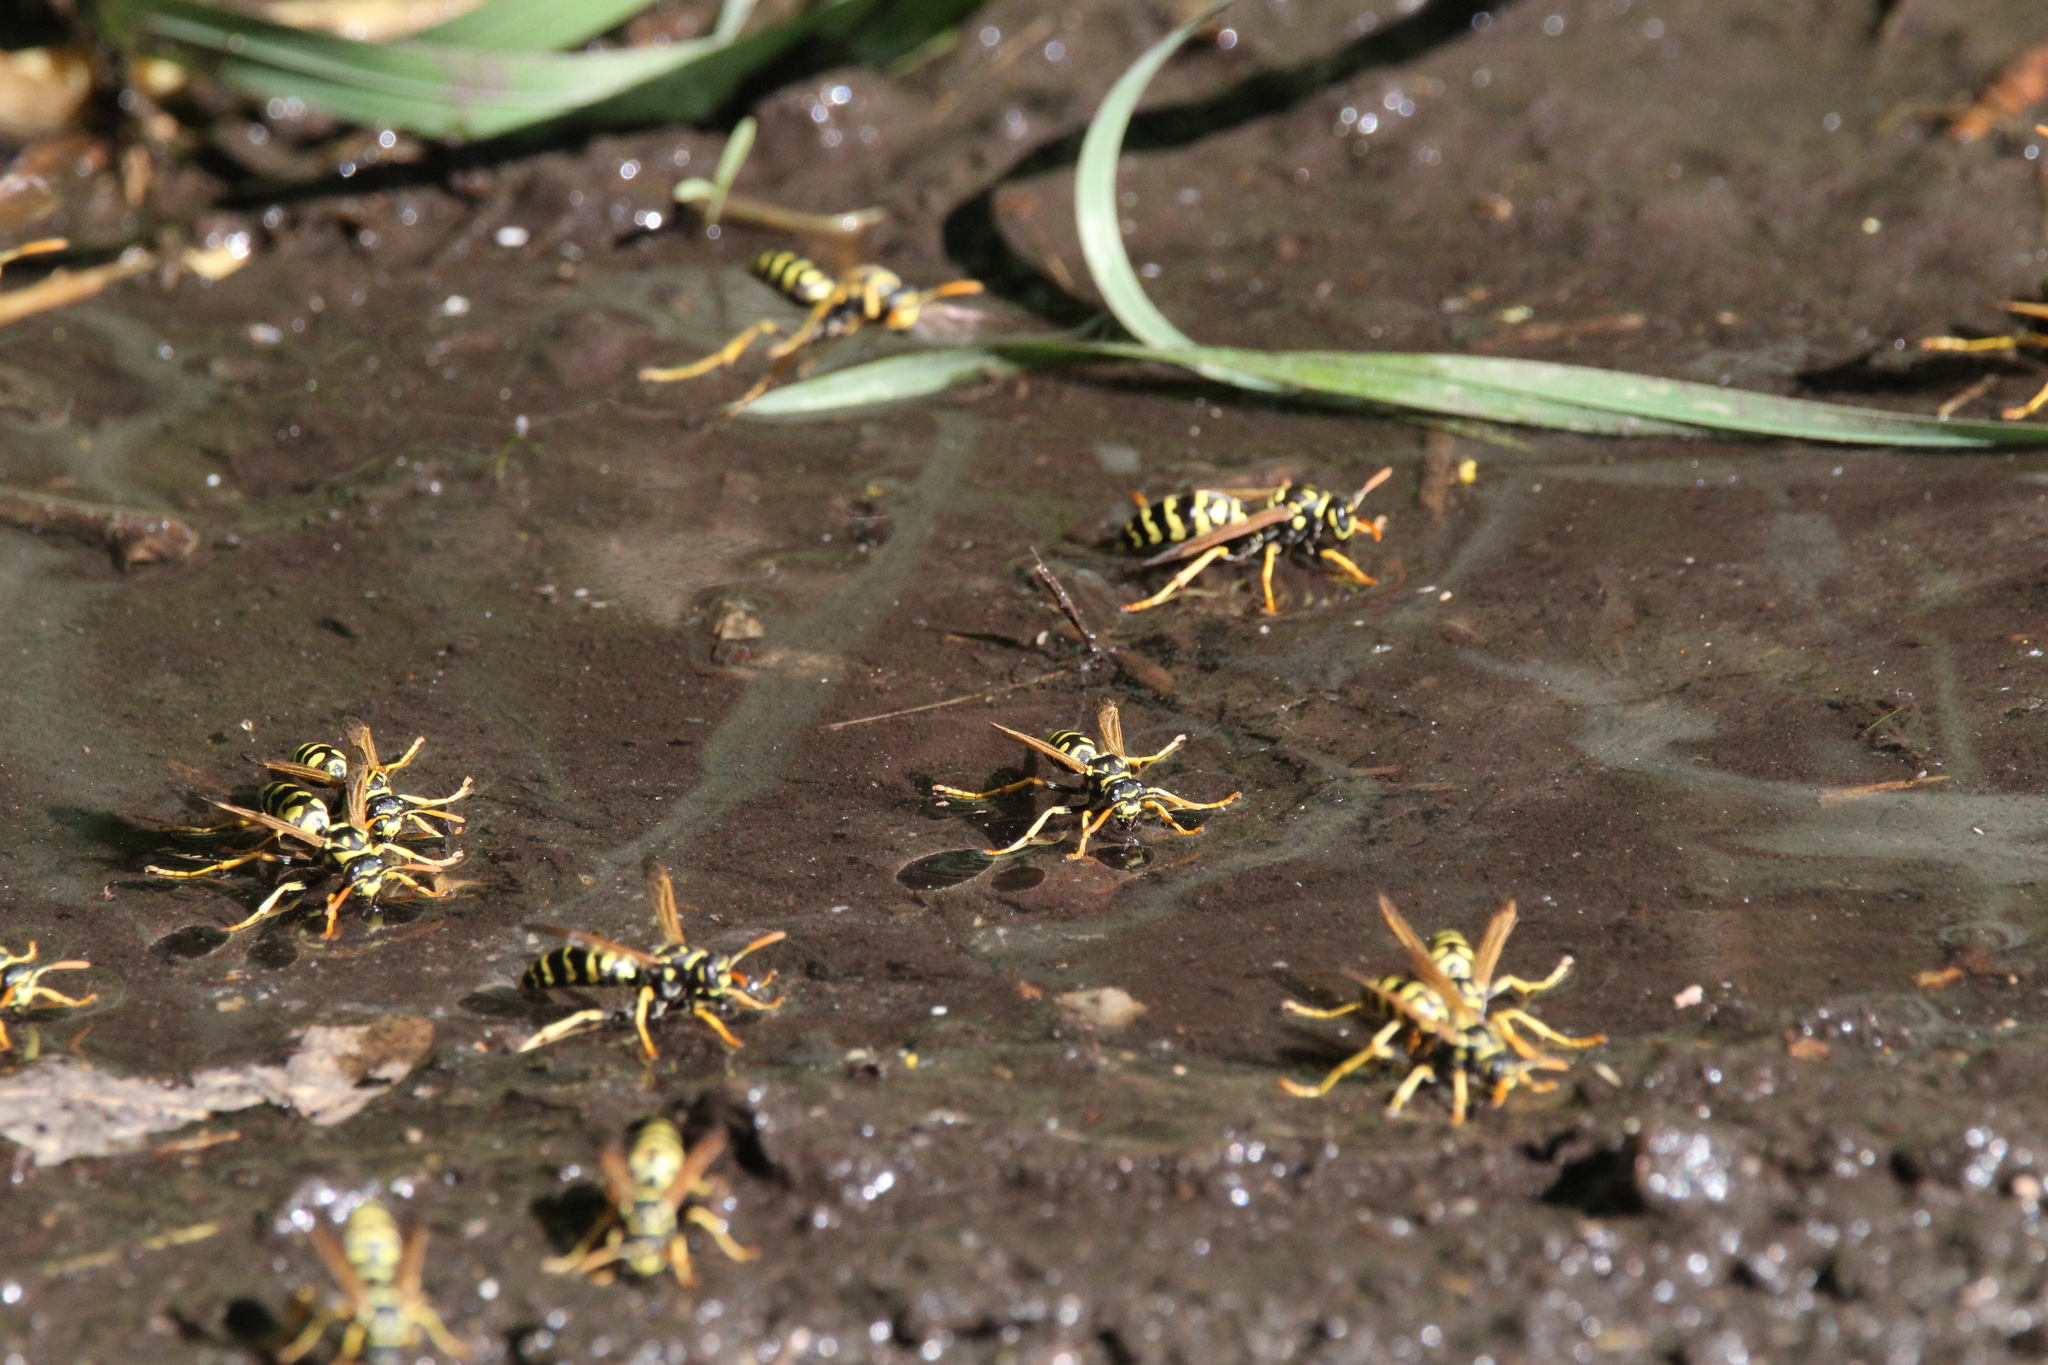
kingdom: Animalia
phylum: Arthropoda
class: Insecta
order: Hymenoptera
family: Eumenidae
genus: Polistes
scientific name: Polistes dominula
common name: Paper wasp
